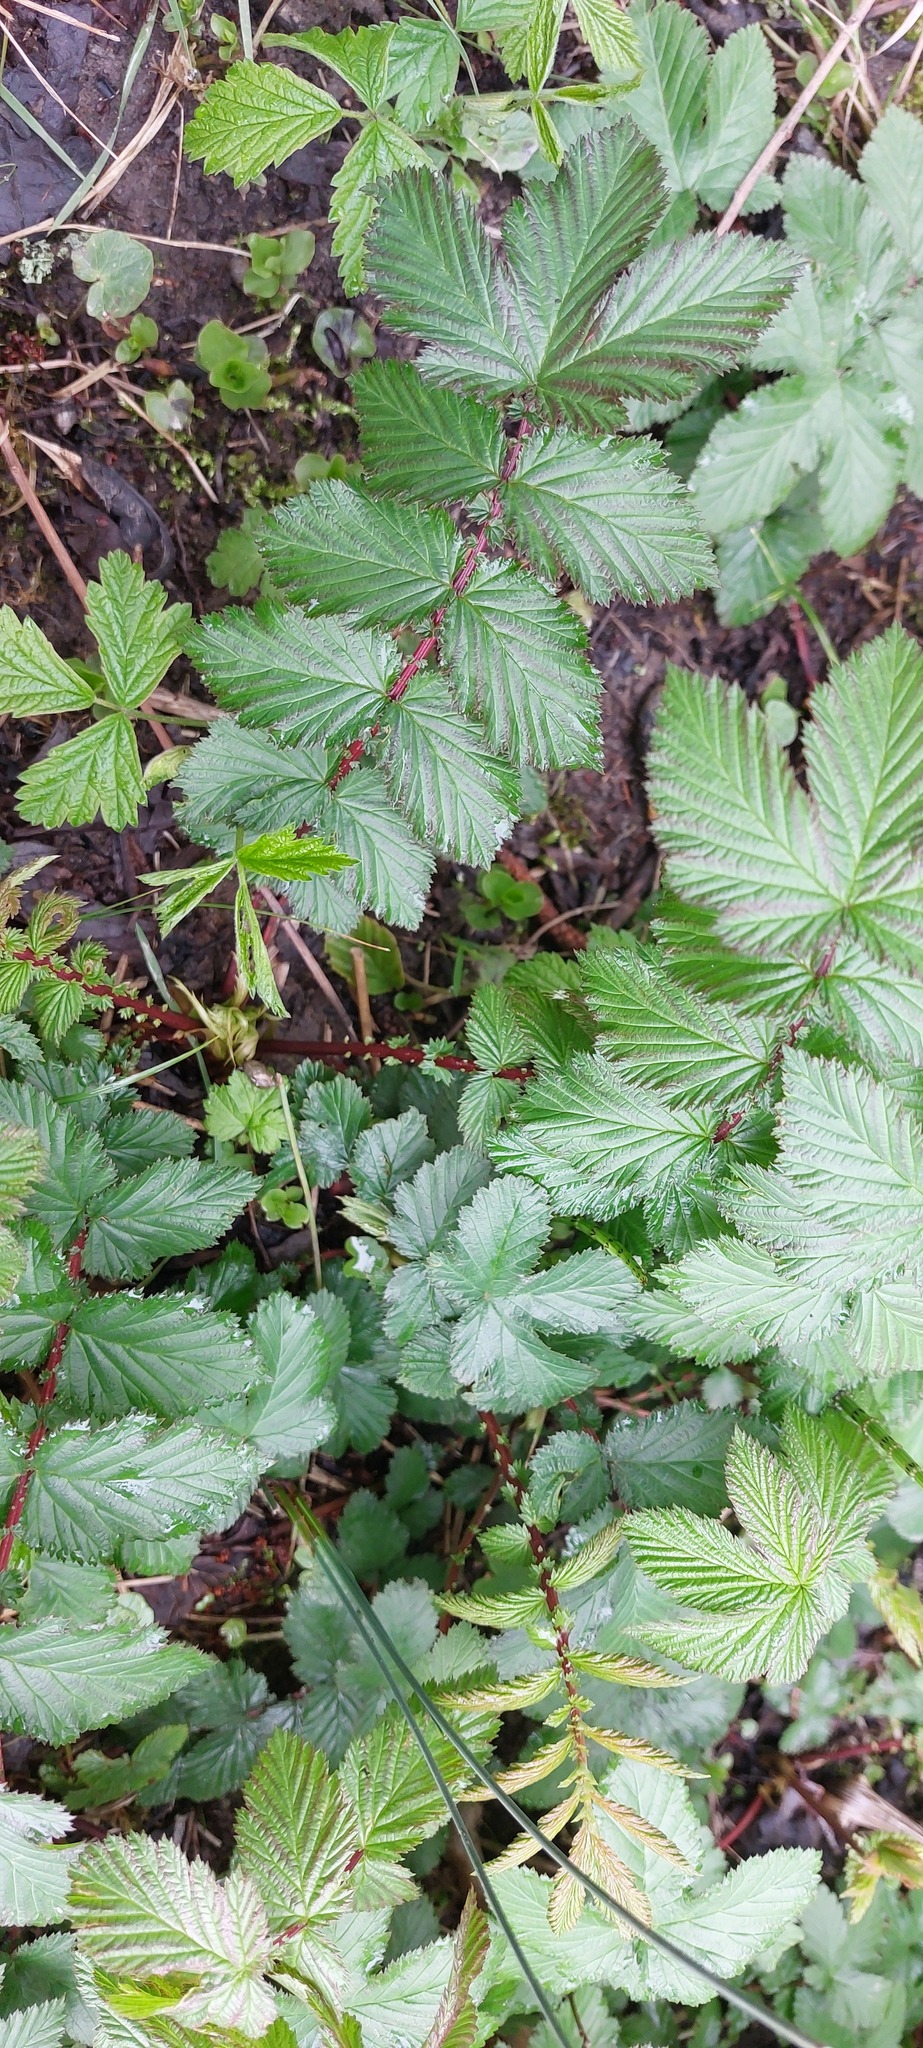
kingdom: Plantae
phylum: Tracheophyta
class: Magnoliopsida
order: Rosales
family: Rosaceae
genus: Filipendula
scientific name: Filipendula ulmaria
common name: Meadowsweet
